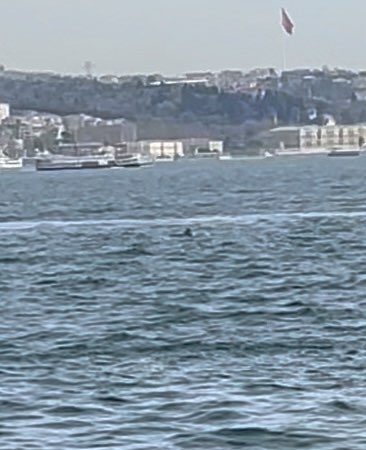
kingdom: Animalia
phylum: Chordata
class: Mammalia
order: Cetacea
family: Delphinidae
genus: Tursiops
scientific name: Tursiops truncatus
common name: Bottlenose dolphin
